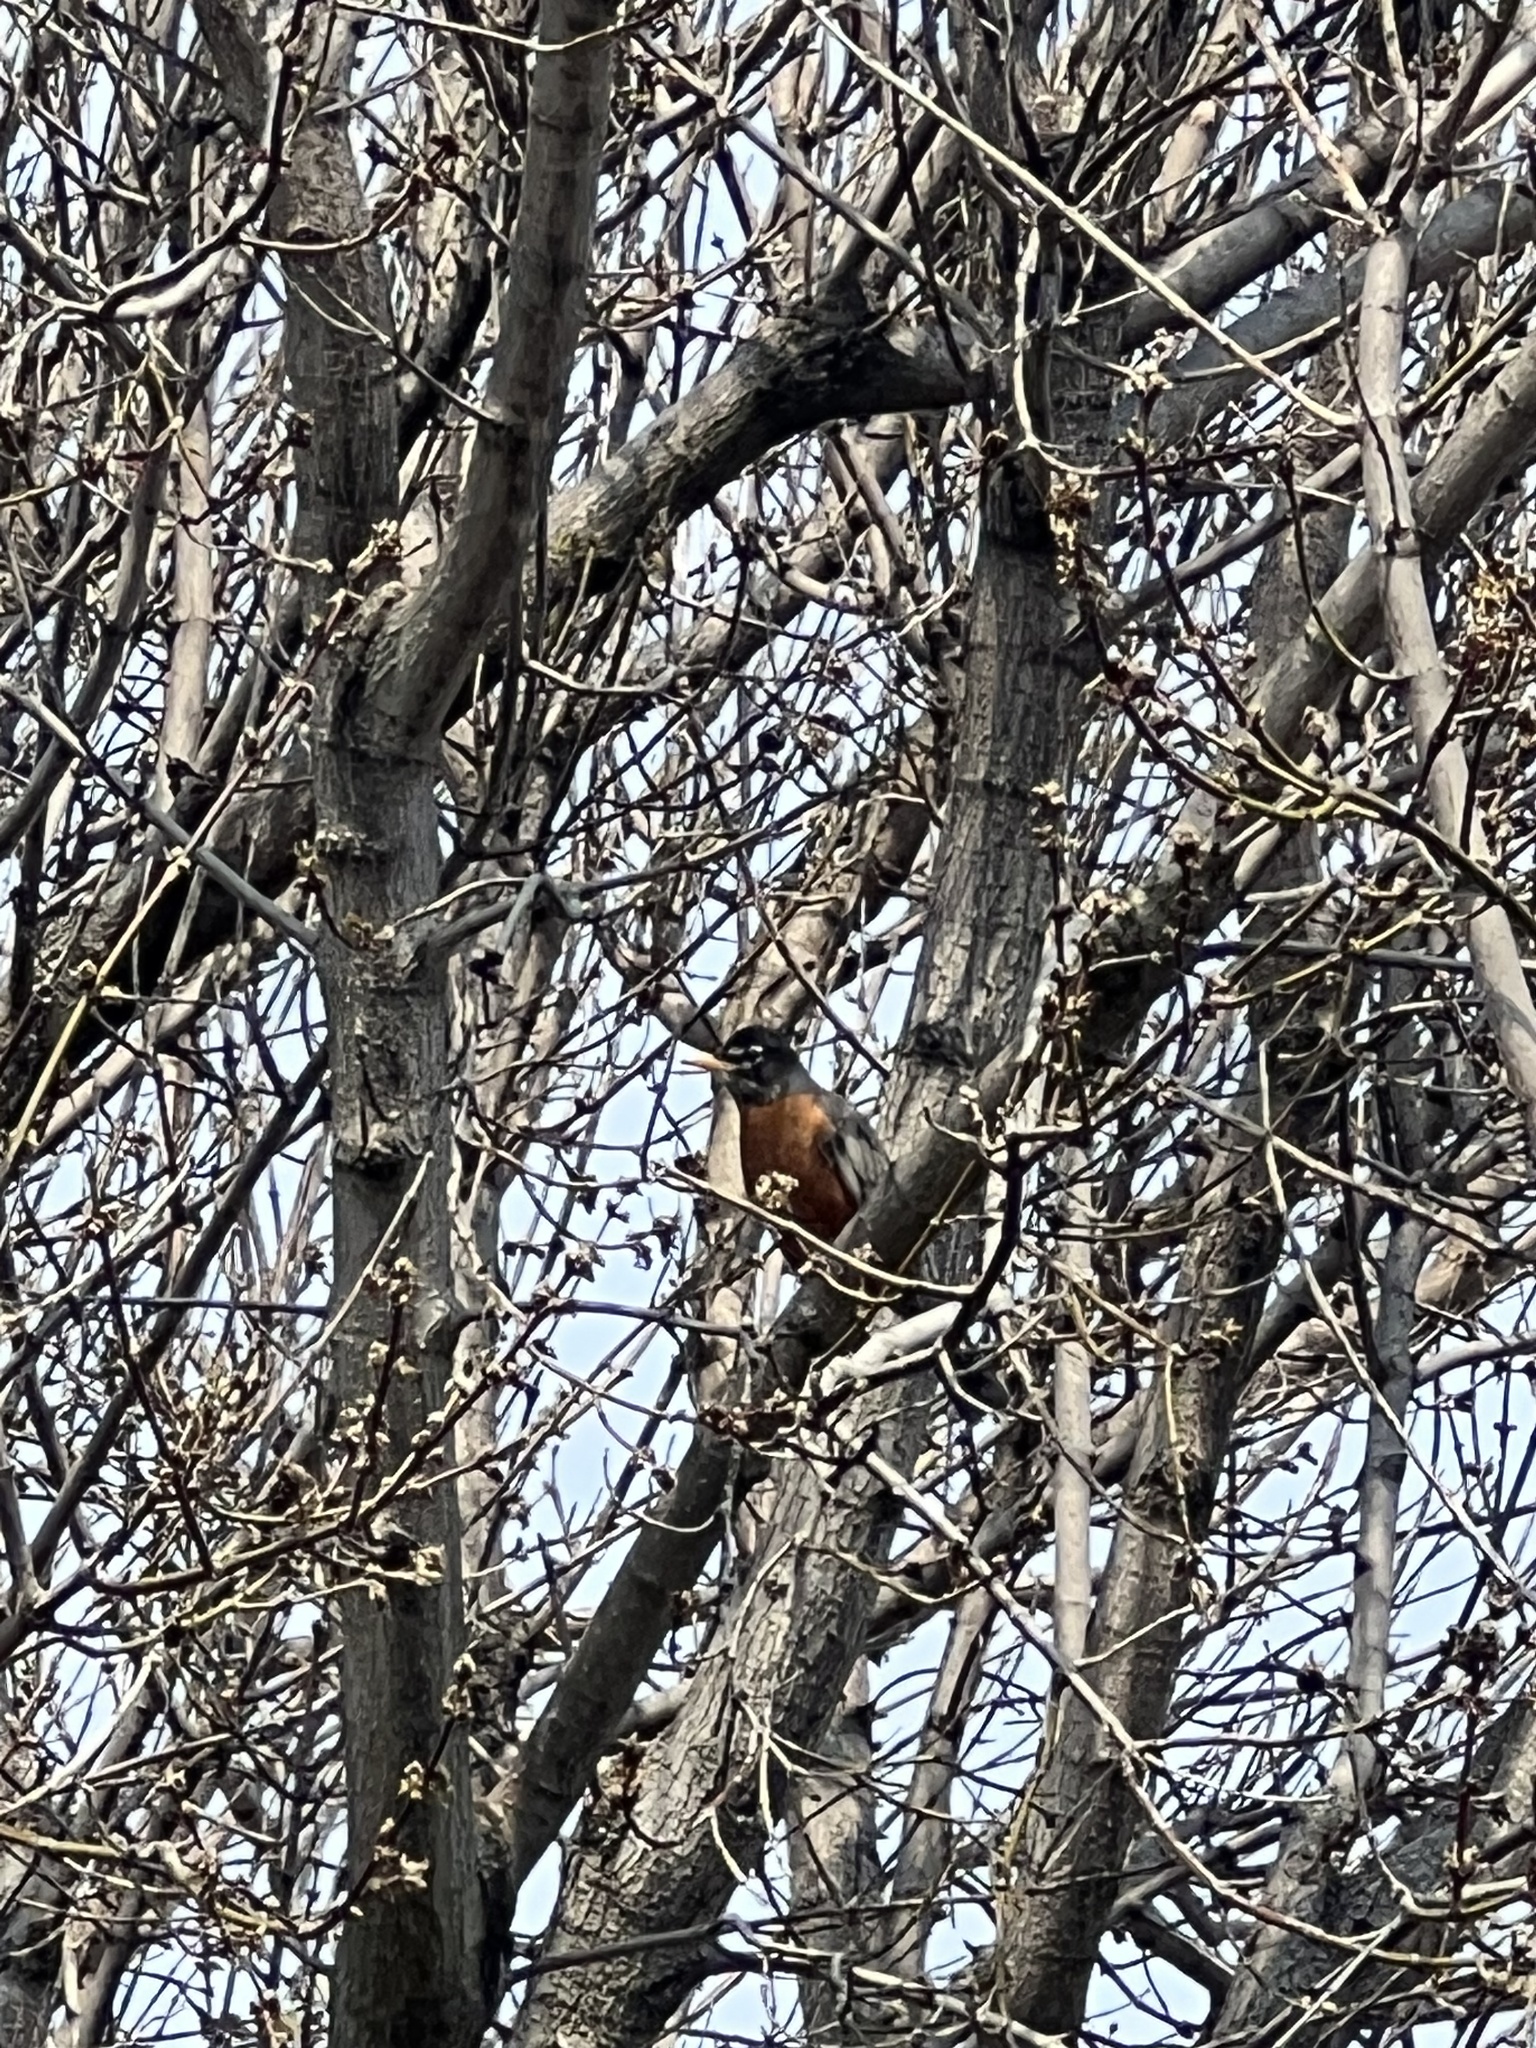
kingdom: Animalia
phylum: Chordata
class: Aves
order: Passeriformes
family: Turdidae
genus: Turdus
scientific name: Turdus migratorius
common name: American robin
